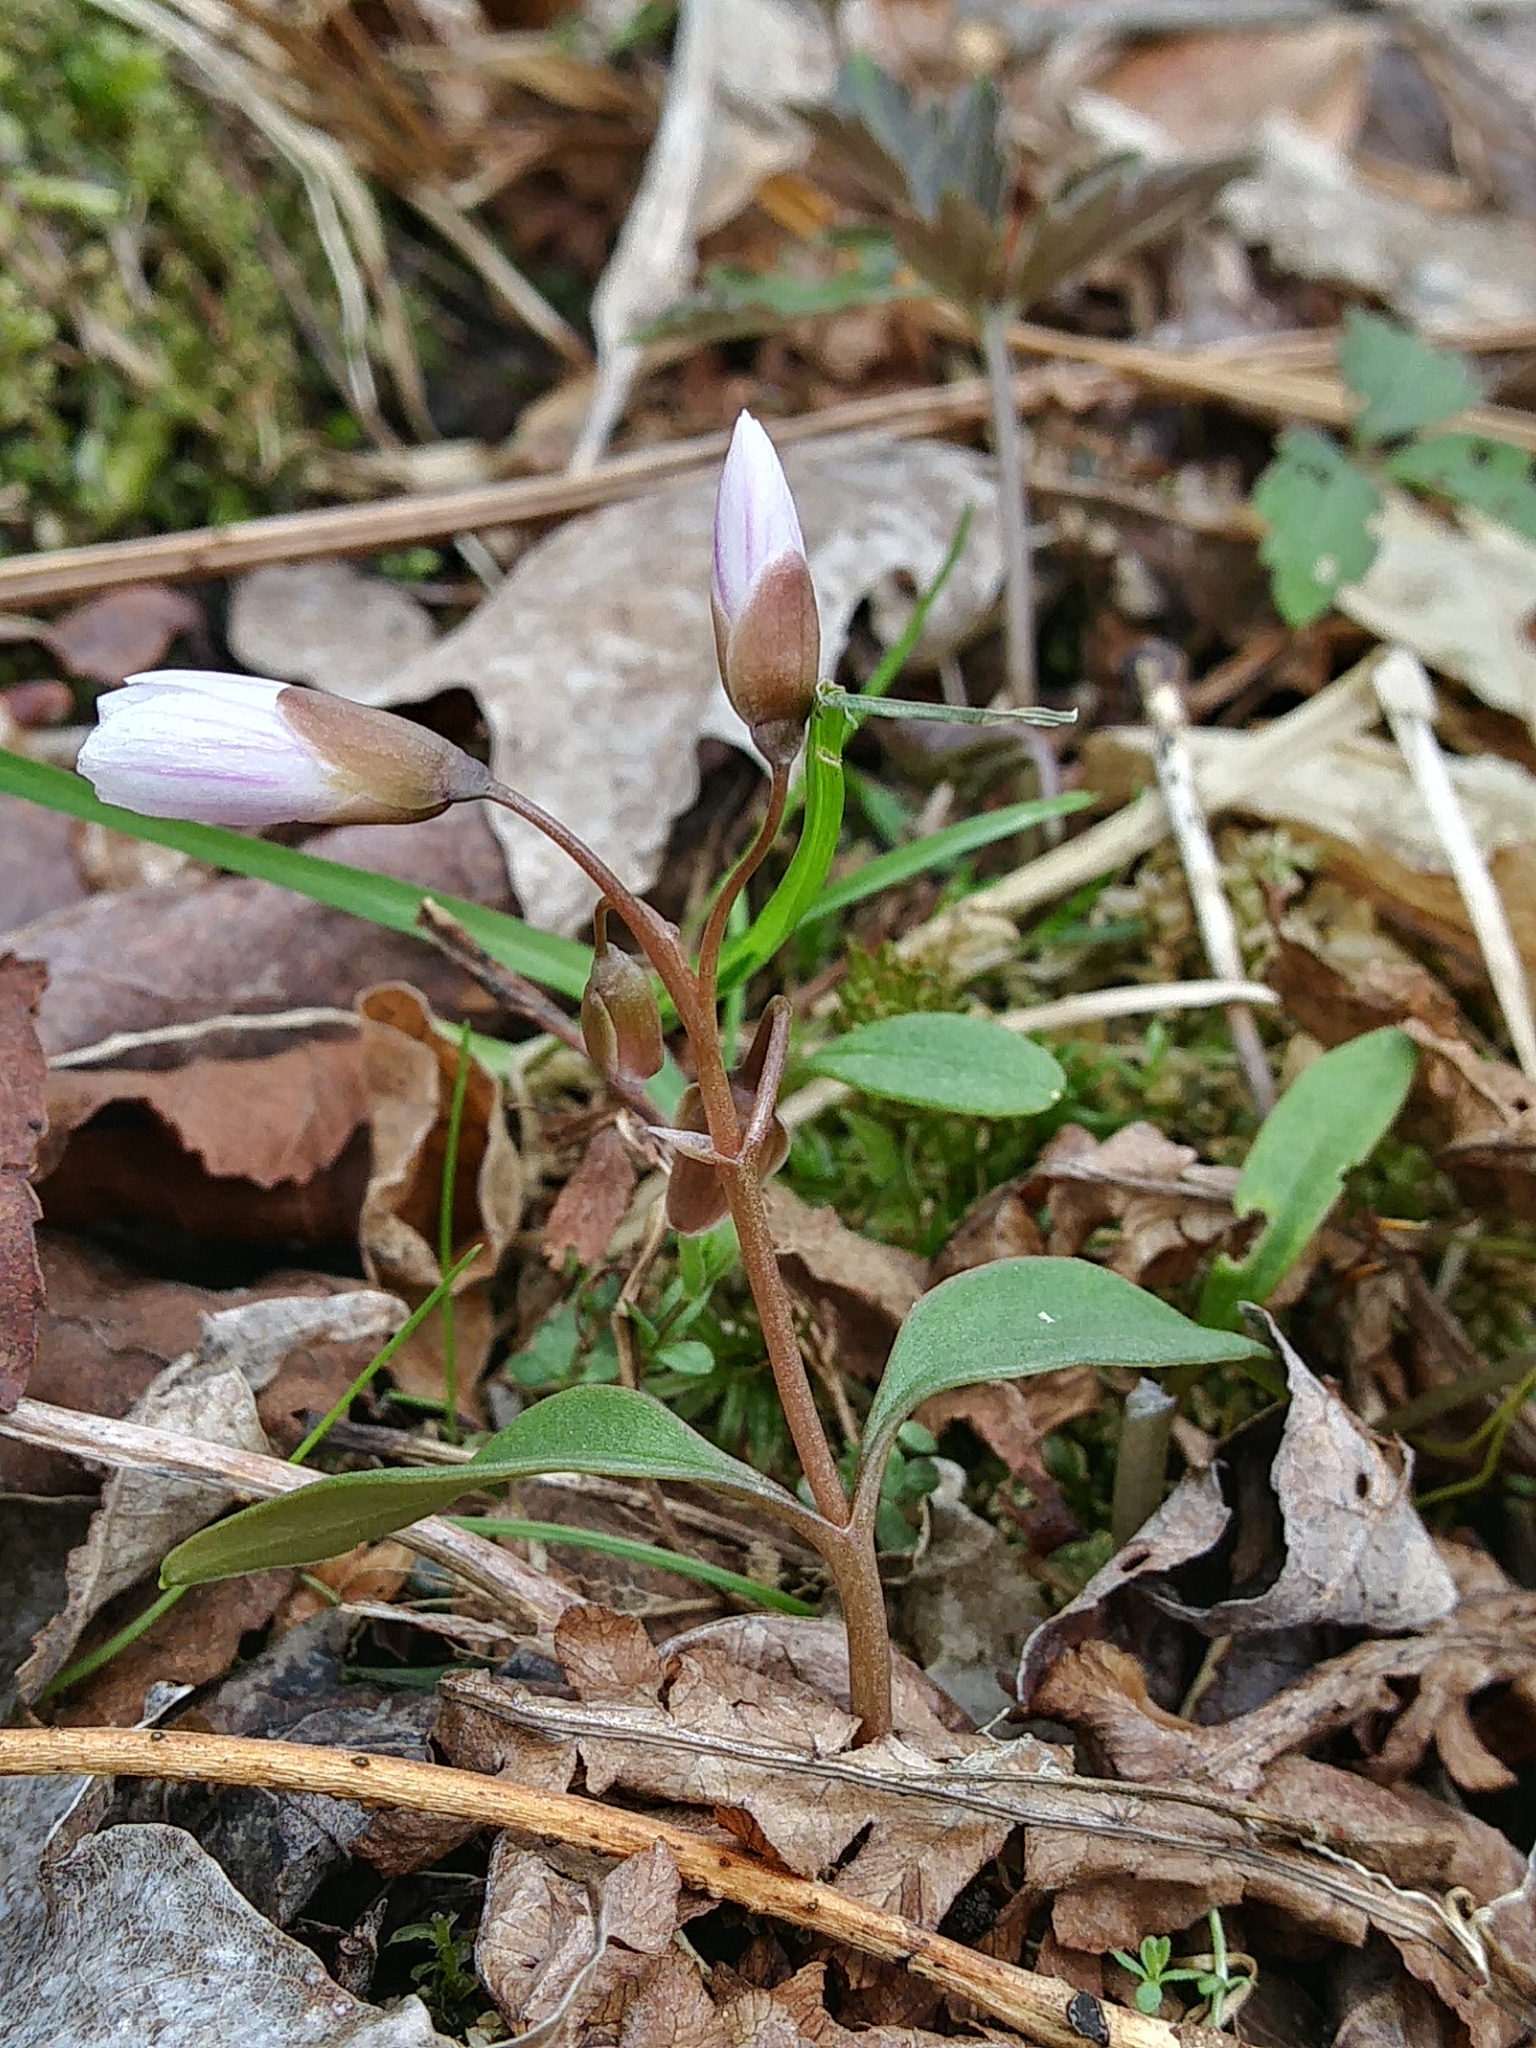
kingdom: Plantae
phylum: Tracheophyta
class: Magnoliopsida
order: Caryophyllales
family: Montiaceae
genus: Claytonia
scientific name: Claytonia caroliniana
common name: Carolina spring beauty
